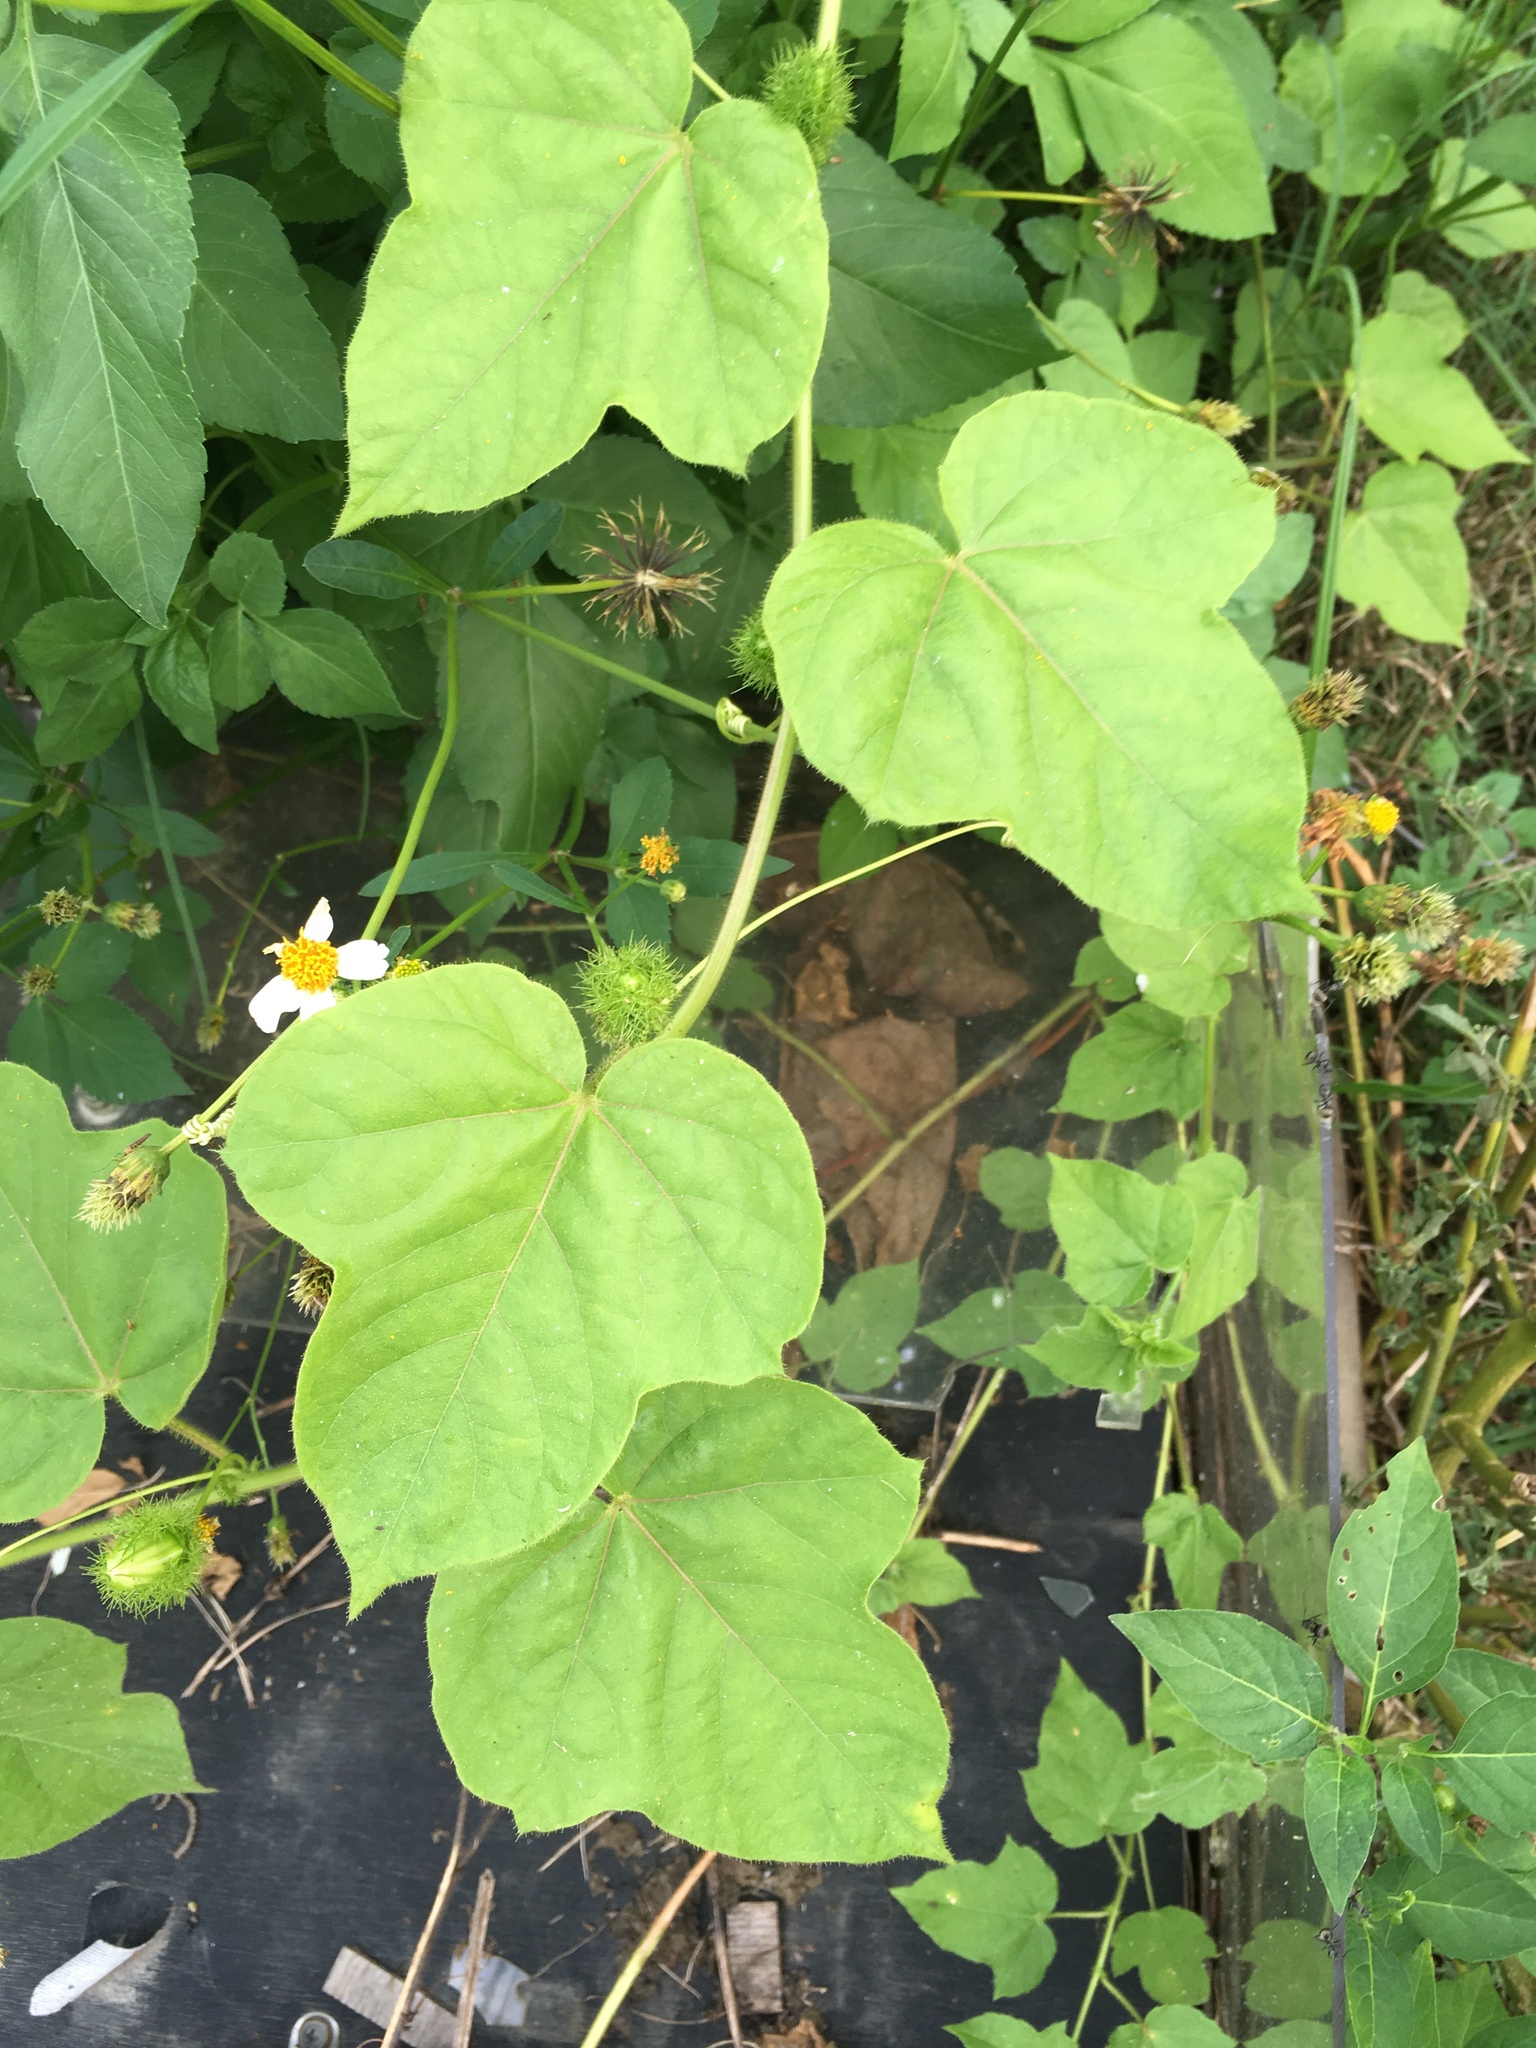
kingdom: Plantae
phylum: Tracheophyta
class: Magnoliopsida
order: Malpighiales
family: Passifloraceae
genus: Passiflora
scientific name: Passiflora vesicaria
